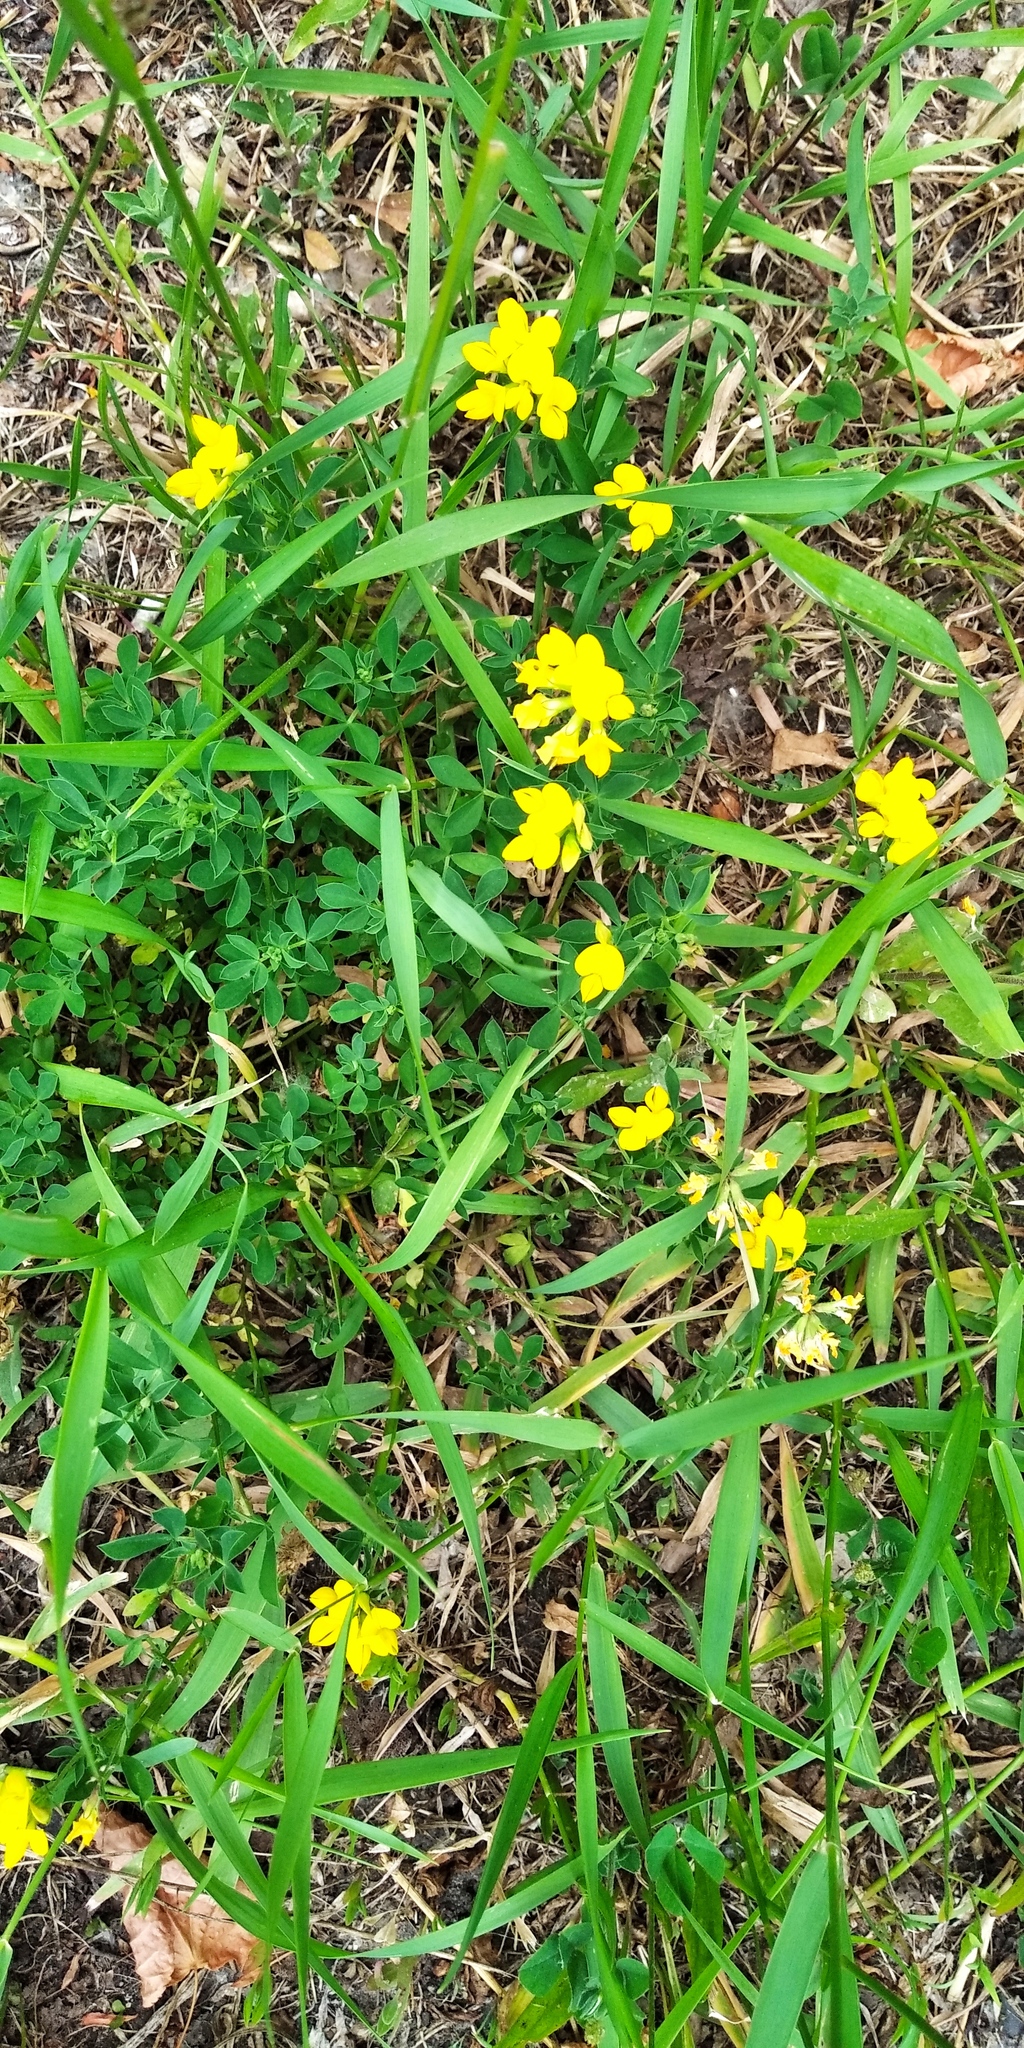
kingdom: Plantae
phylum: Tracheophyta
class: Magnoliopsida
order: Fabales
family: Fabaceae
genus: Lotus
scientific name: Lotus corniculatus
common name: Common bird's-foot-trefoil
